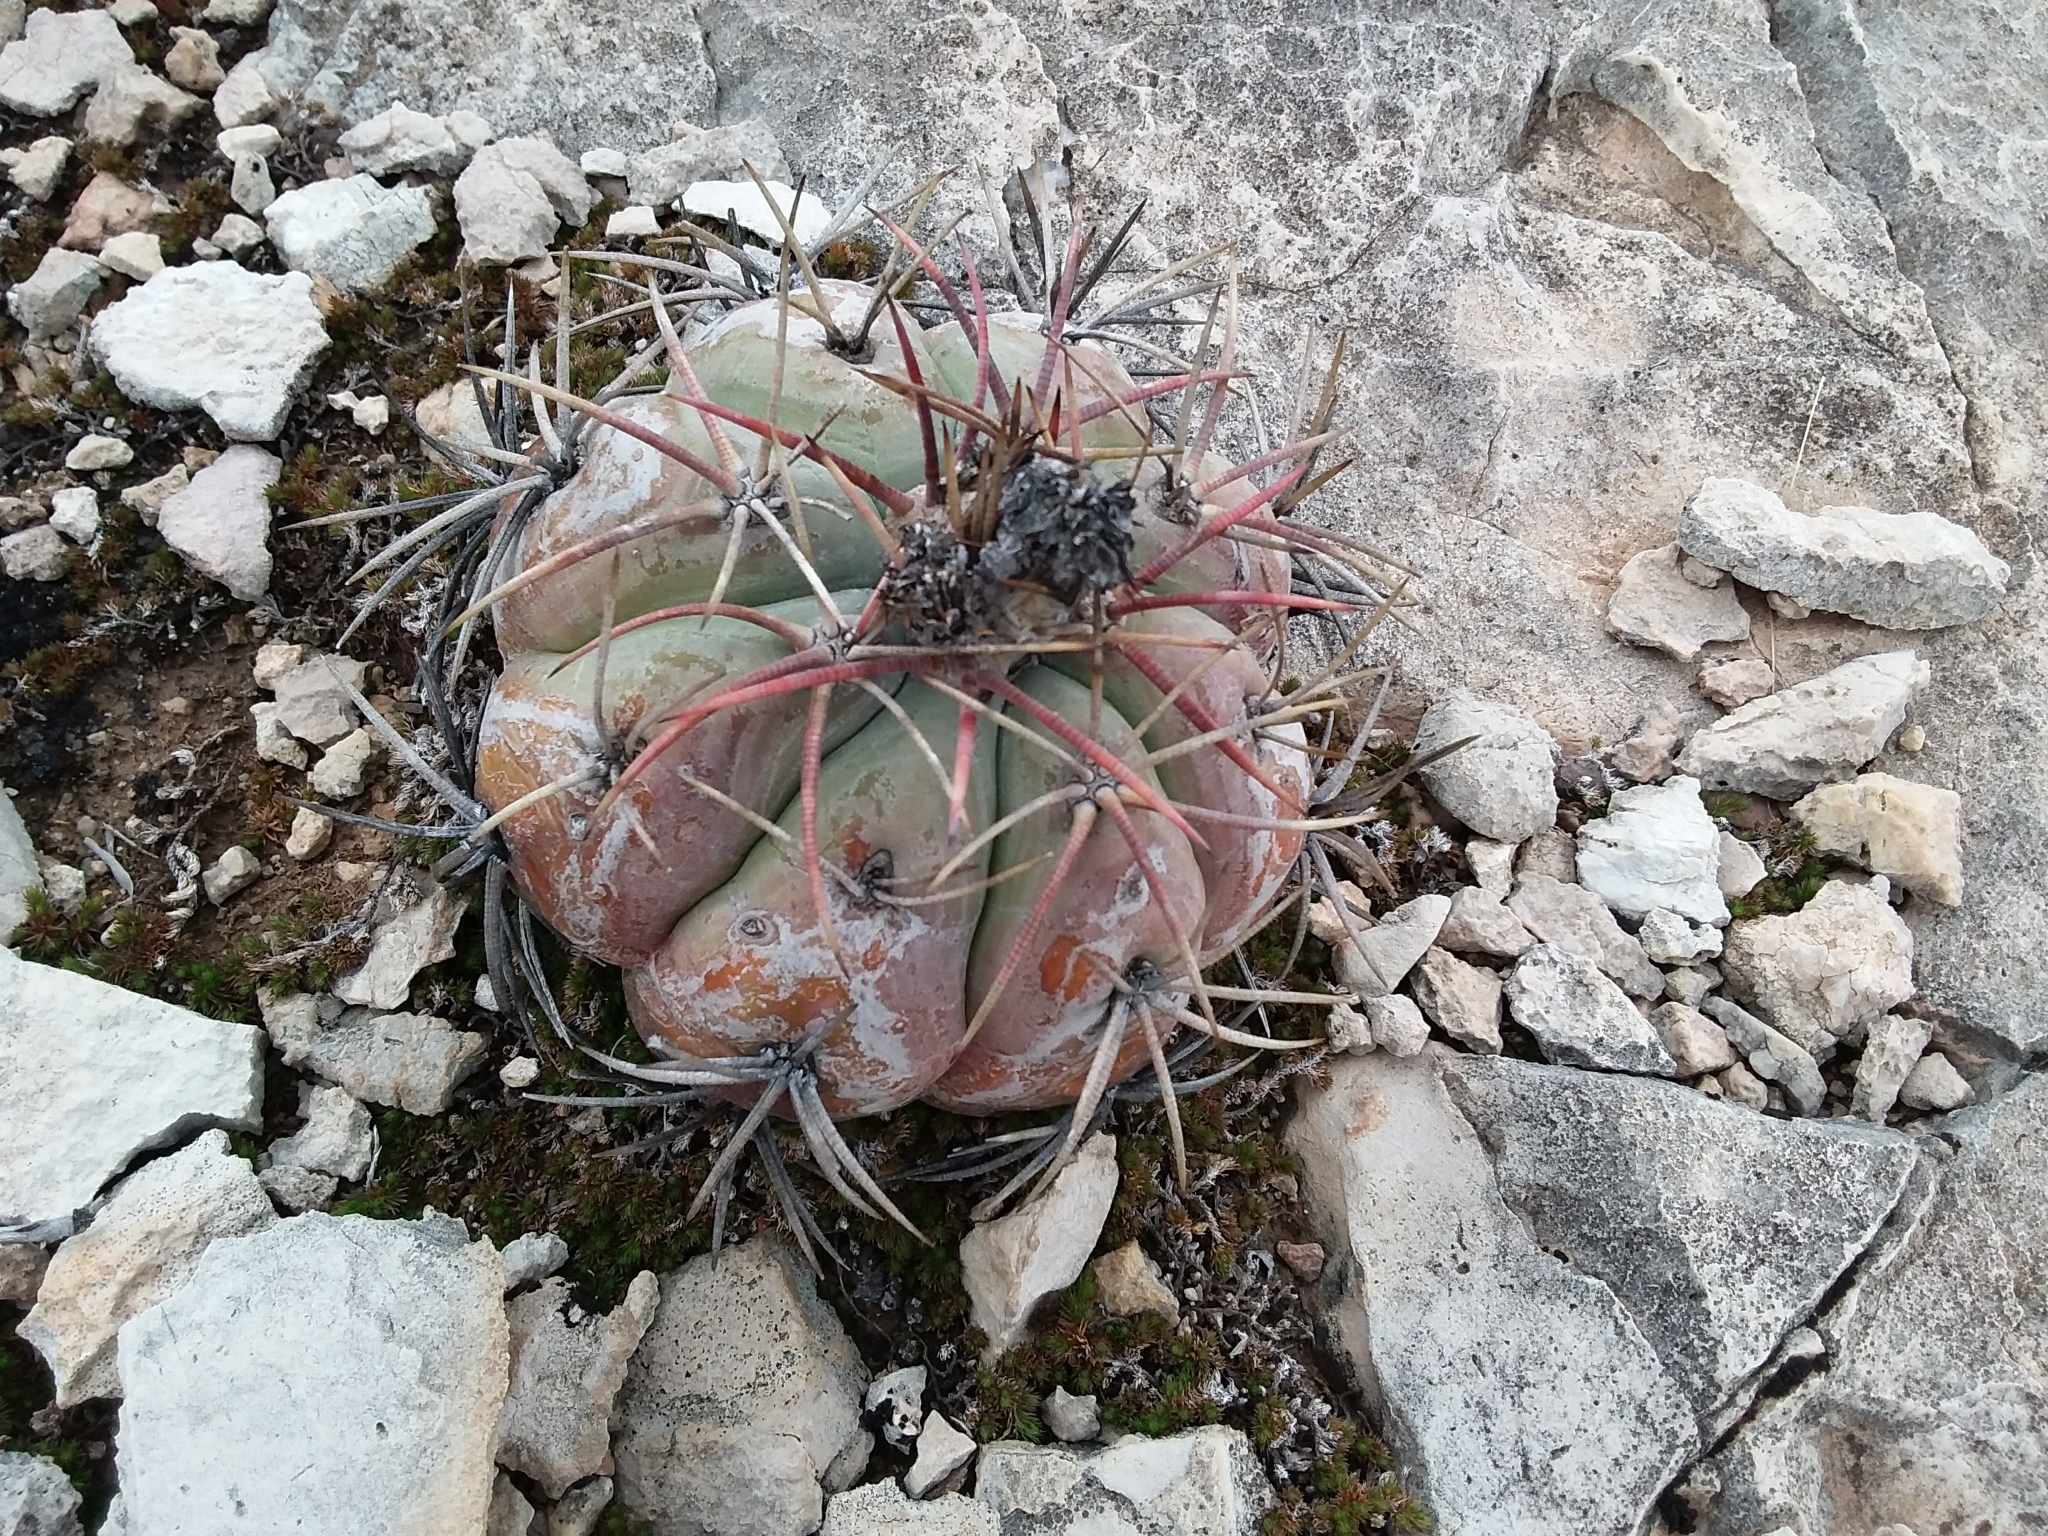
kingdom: Plantae
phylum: Tracheophyta
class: Magnoliopsida
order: Caryophyllales
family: Cactaceae
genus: Echinocactus
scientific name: Echinocactus horizonthalonius
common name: Devilshead
